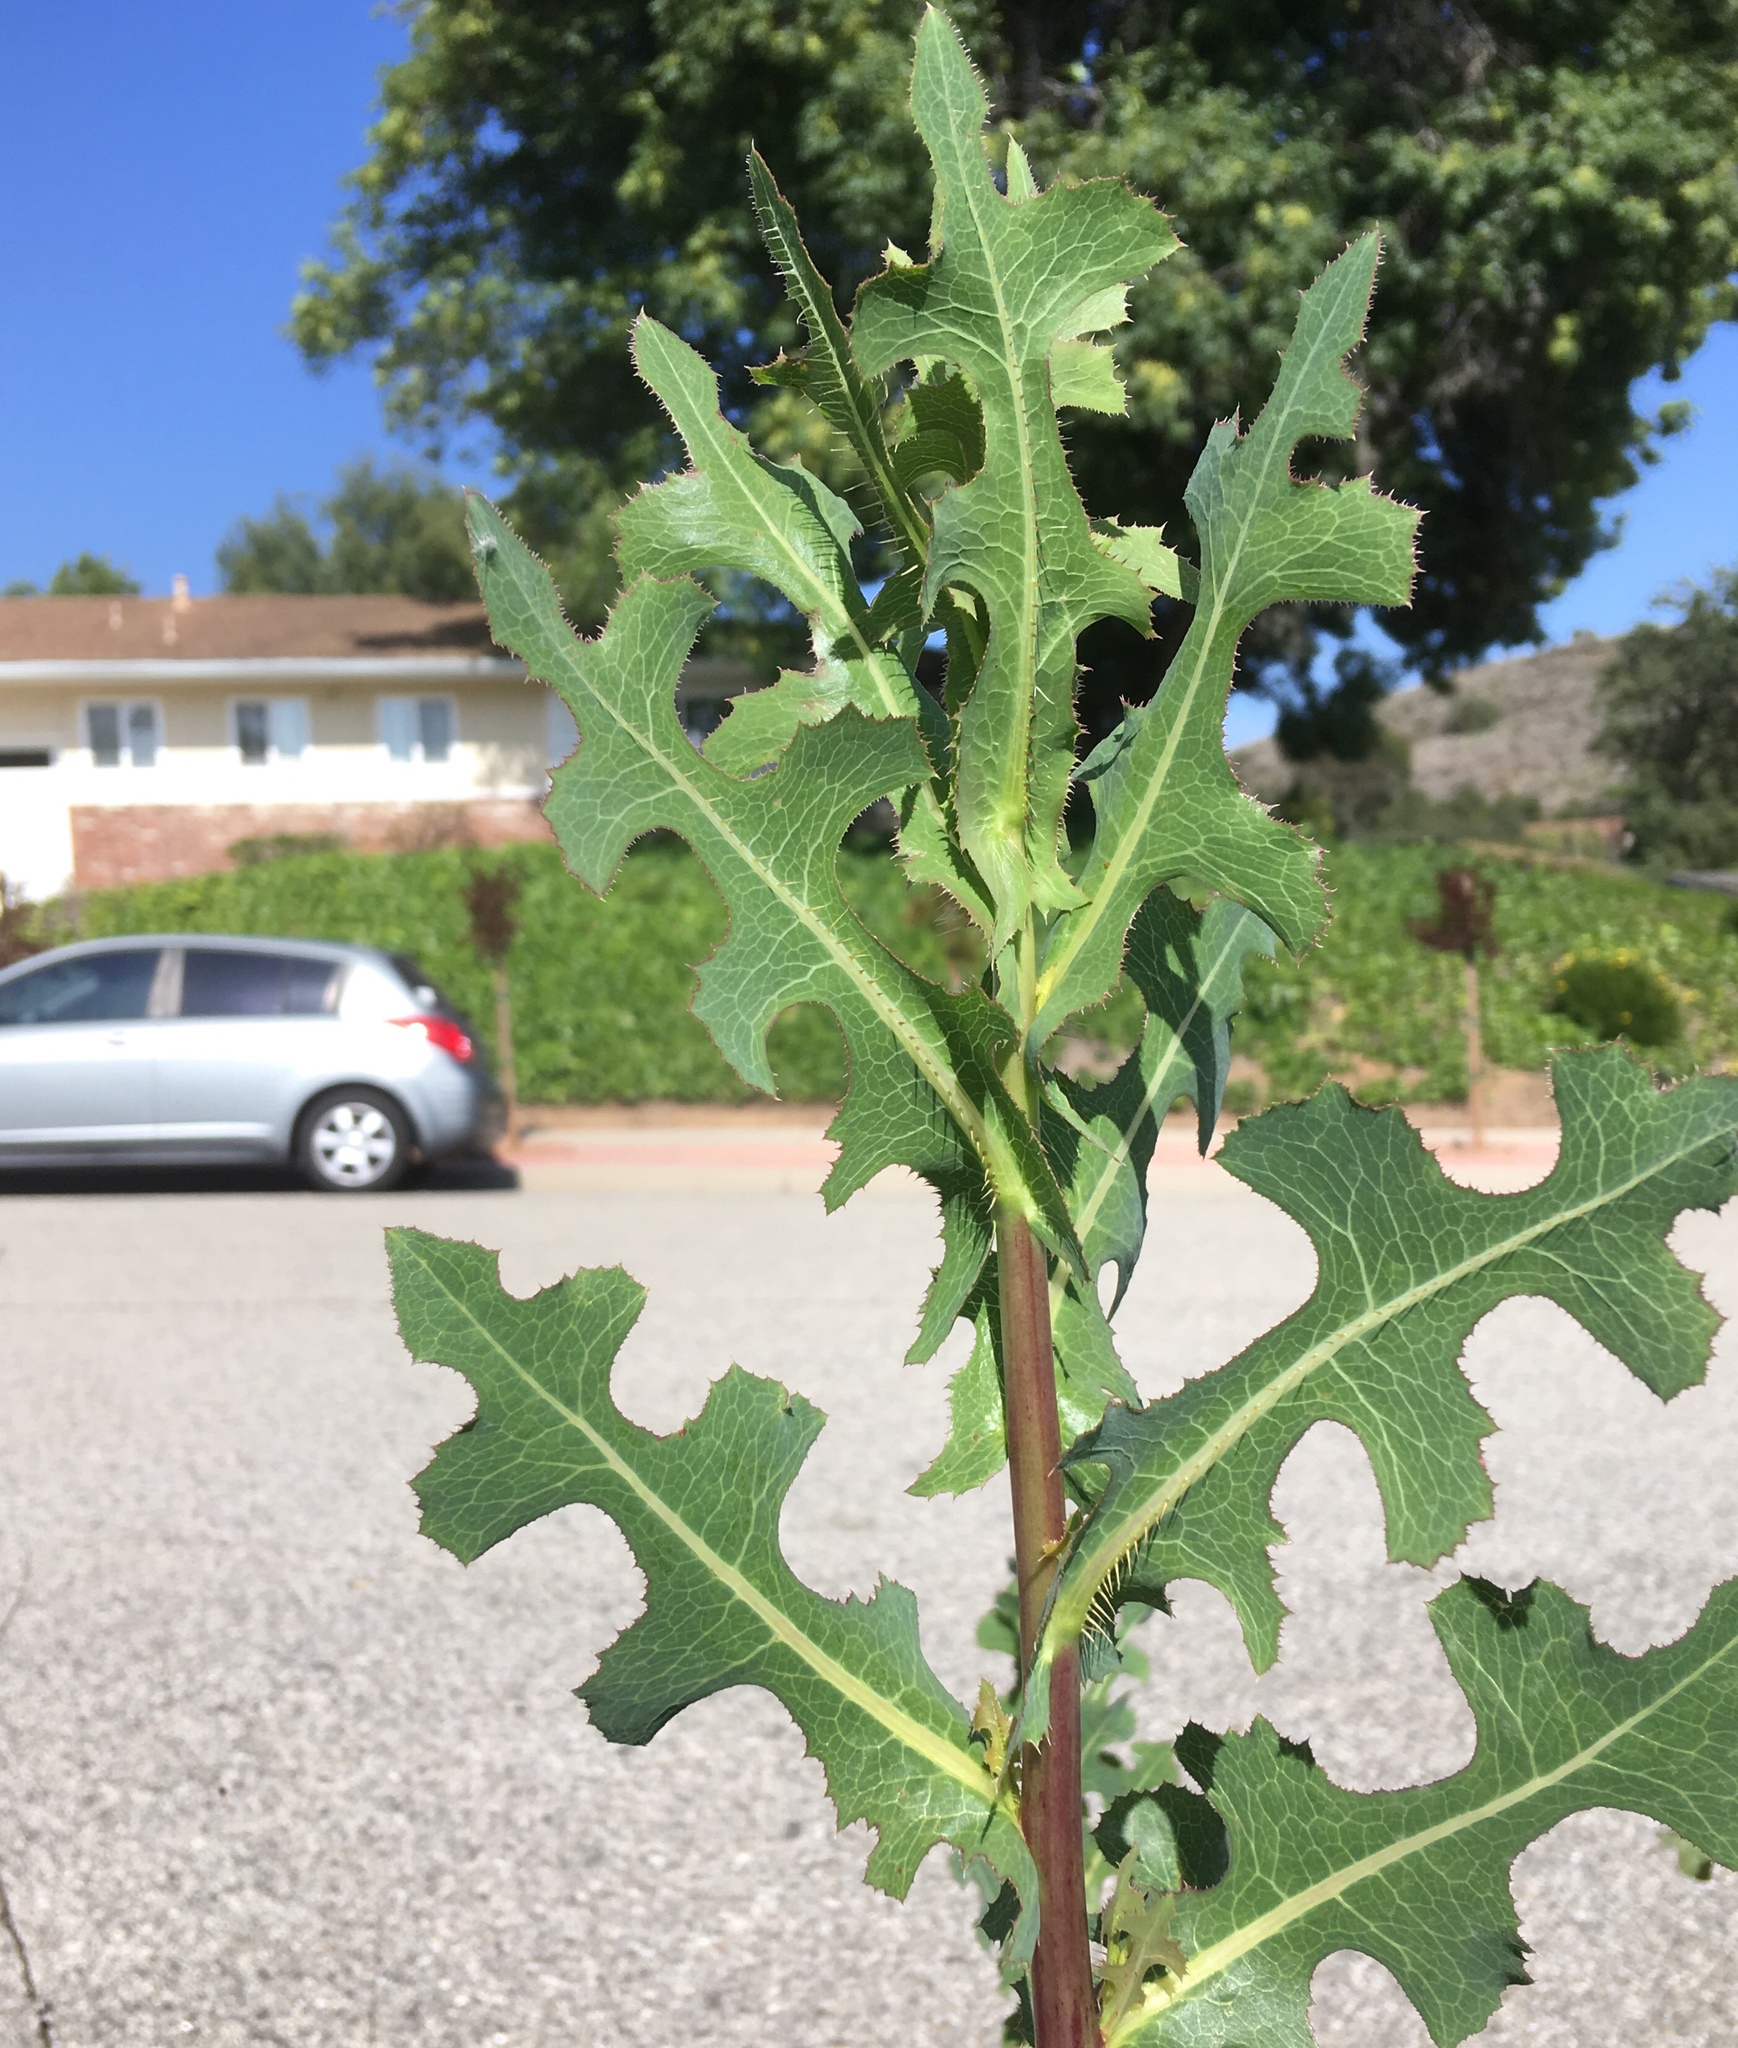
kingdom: Plantae
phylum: Tracheophyta
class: Magnoliopsida
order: Asterales
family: Asteraceae
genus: Lactuca
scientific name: Lactuca serriola
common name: Prickly lettuce
